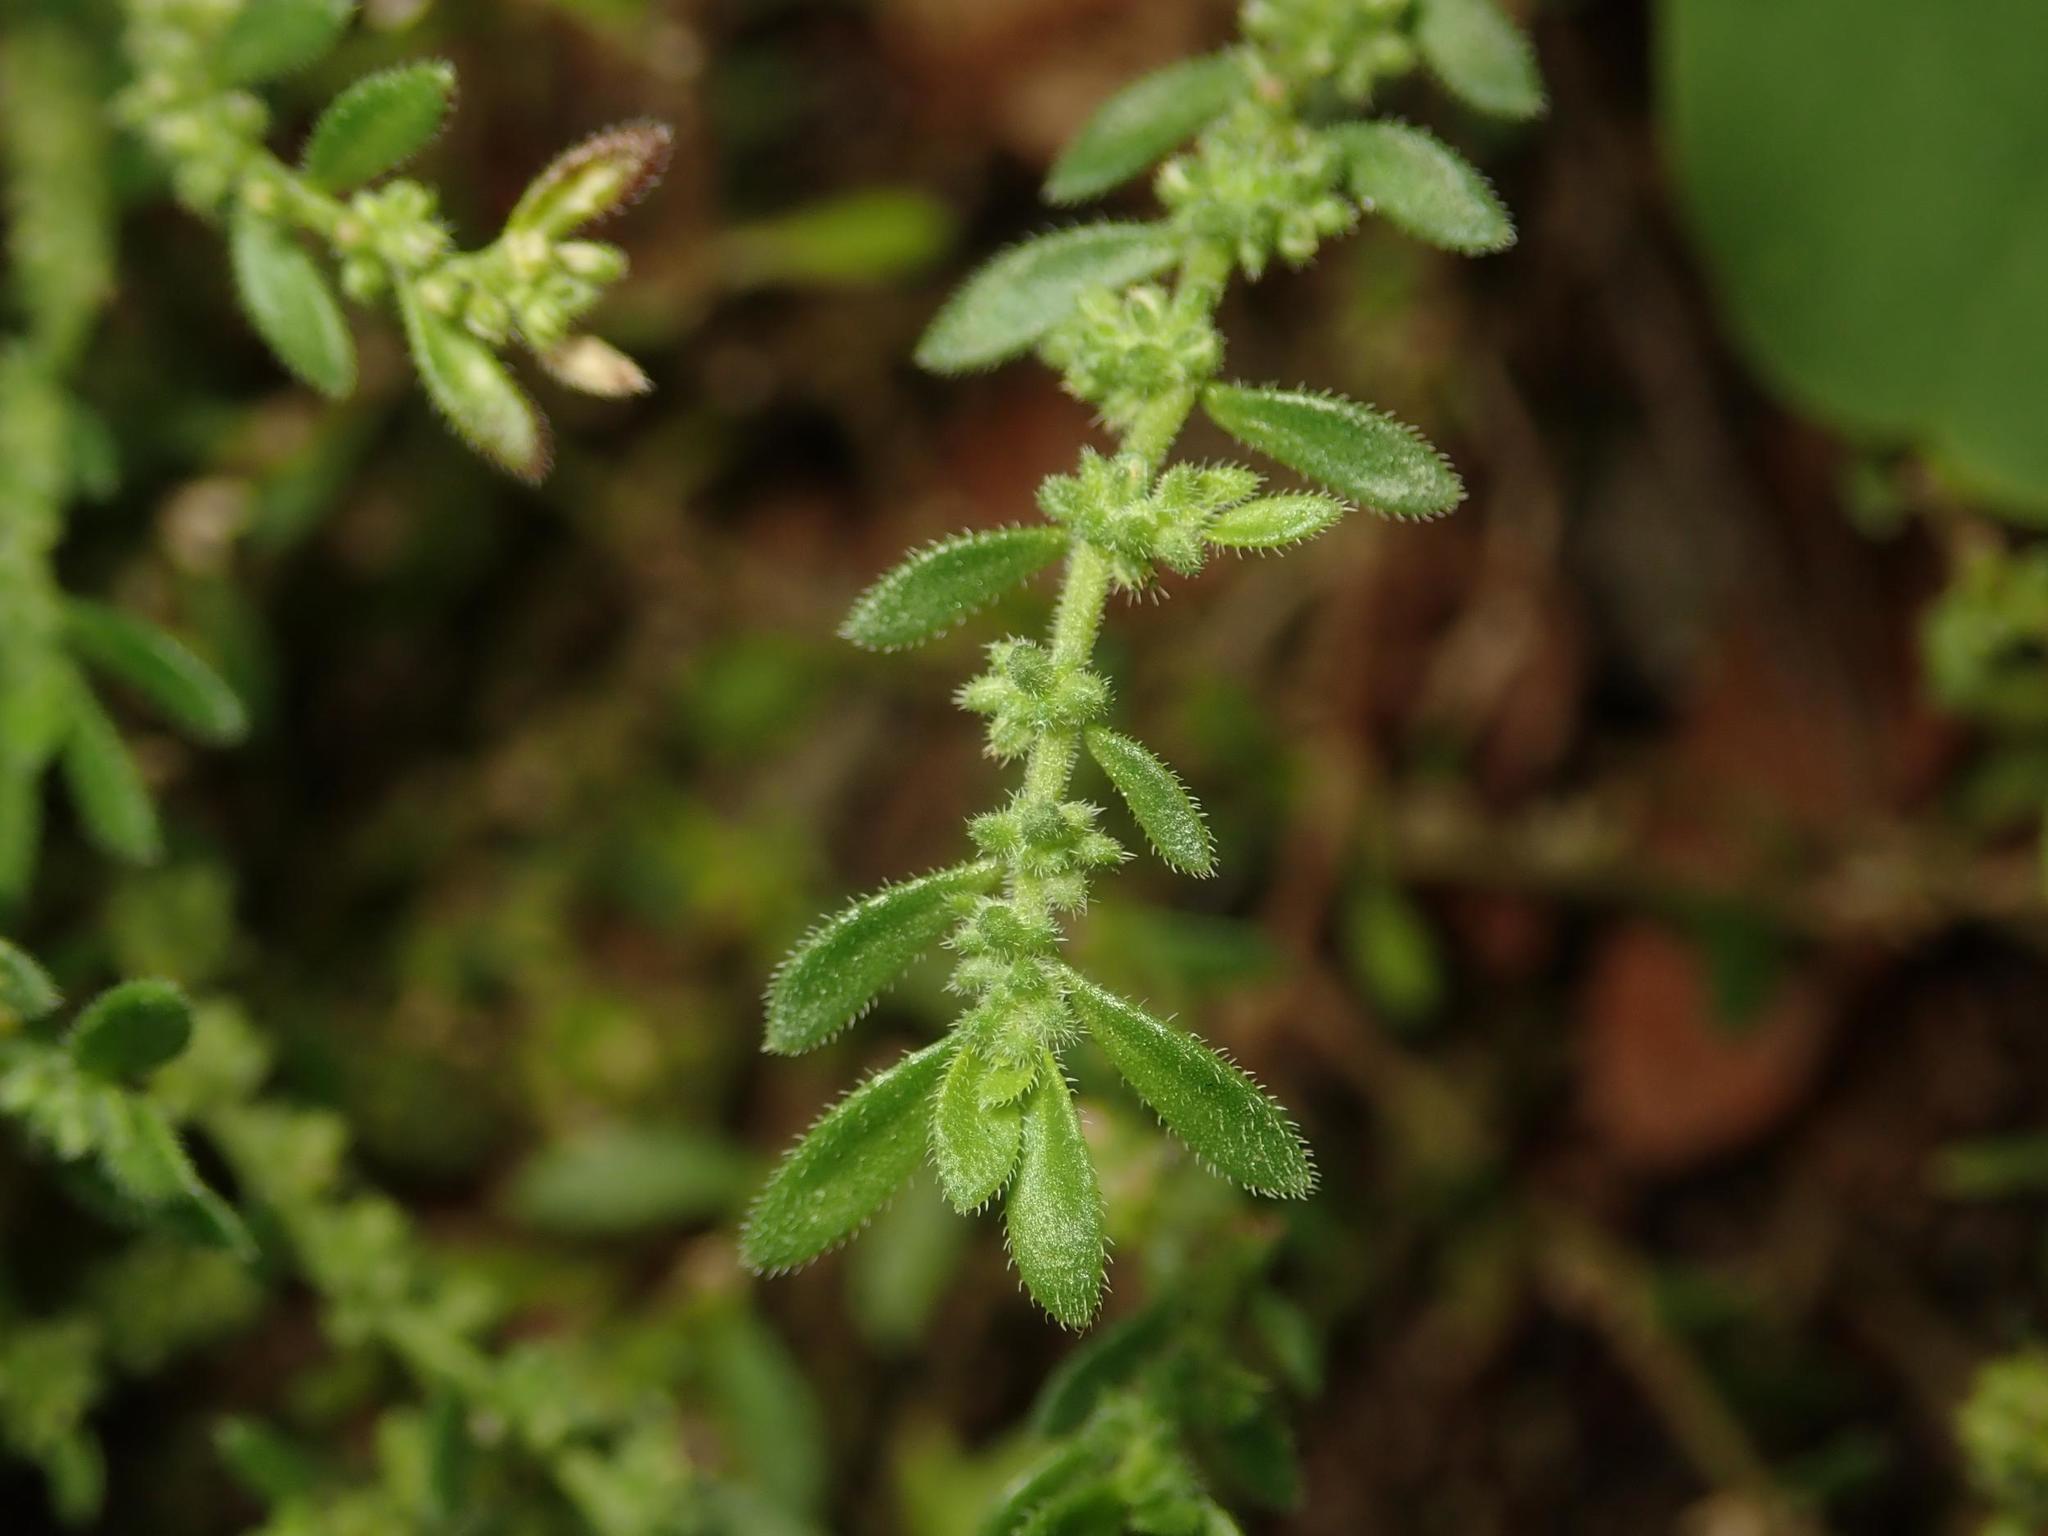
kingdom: Plantae
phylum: Tracheophyta
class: Magnoliopsida
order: Caryophyllales
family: Caryophyllaceae
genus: Herniaria
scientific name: Herniaria hirsuta
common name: Hairy rupturewort
